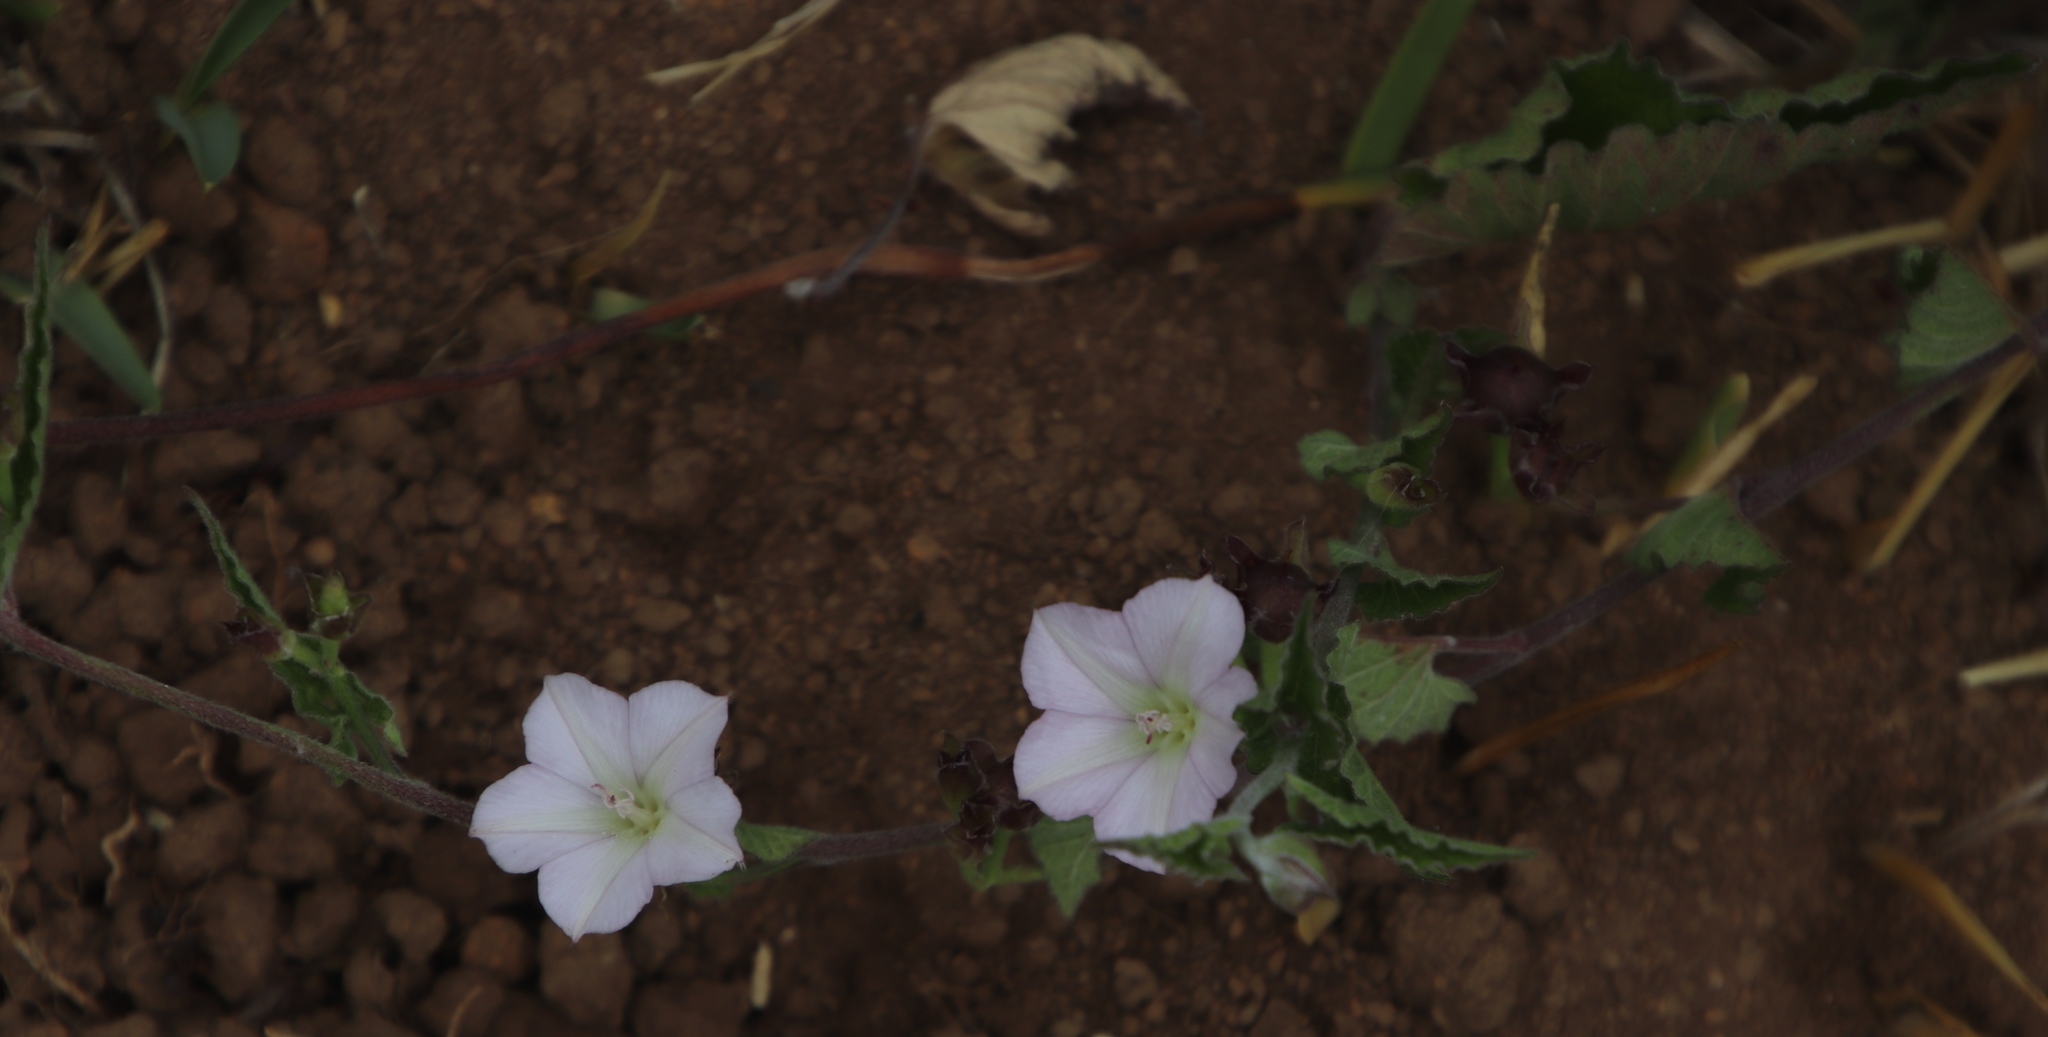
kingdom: Plantae
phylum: Tracheophyta
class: Magnoliopsida
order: Solanales
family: Convolvulaceae
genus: Convolvulus
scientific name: Convolvulus farinosus
